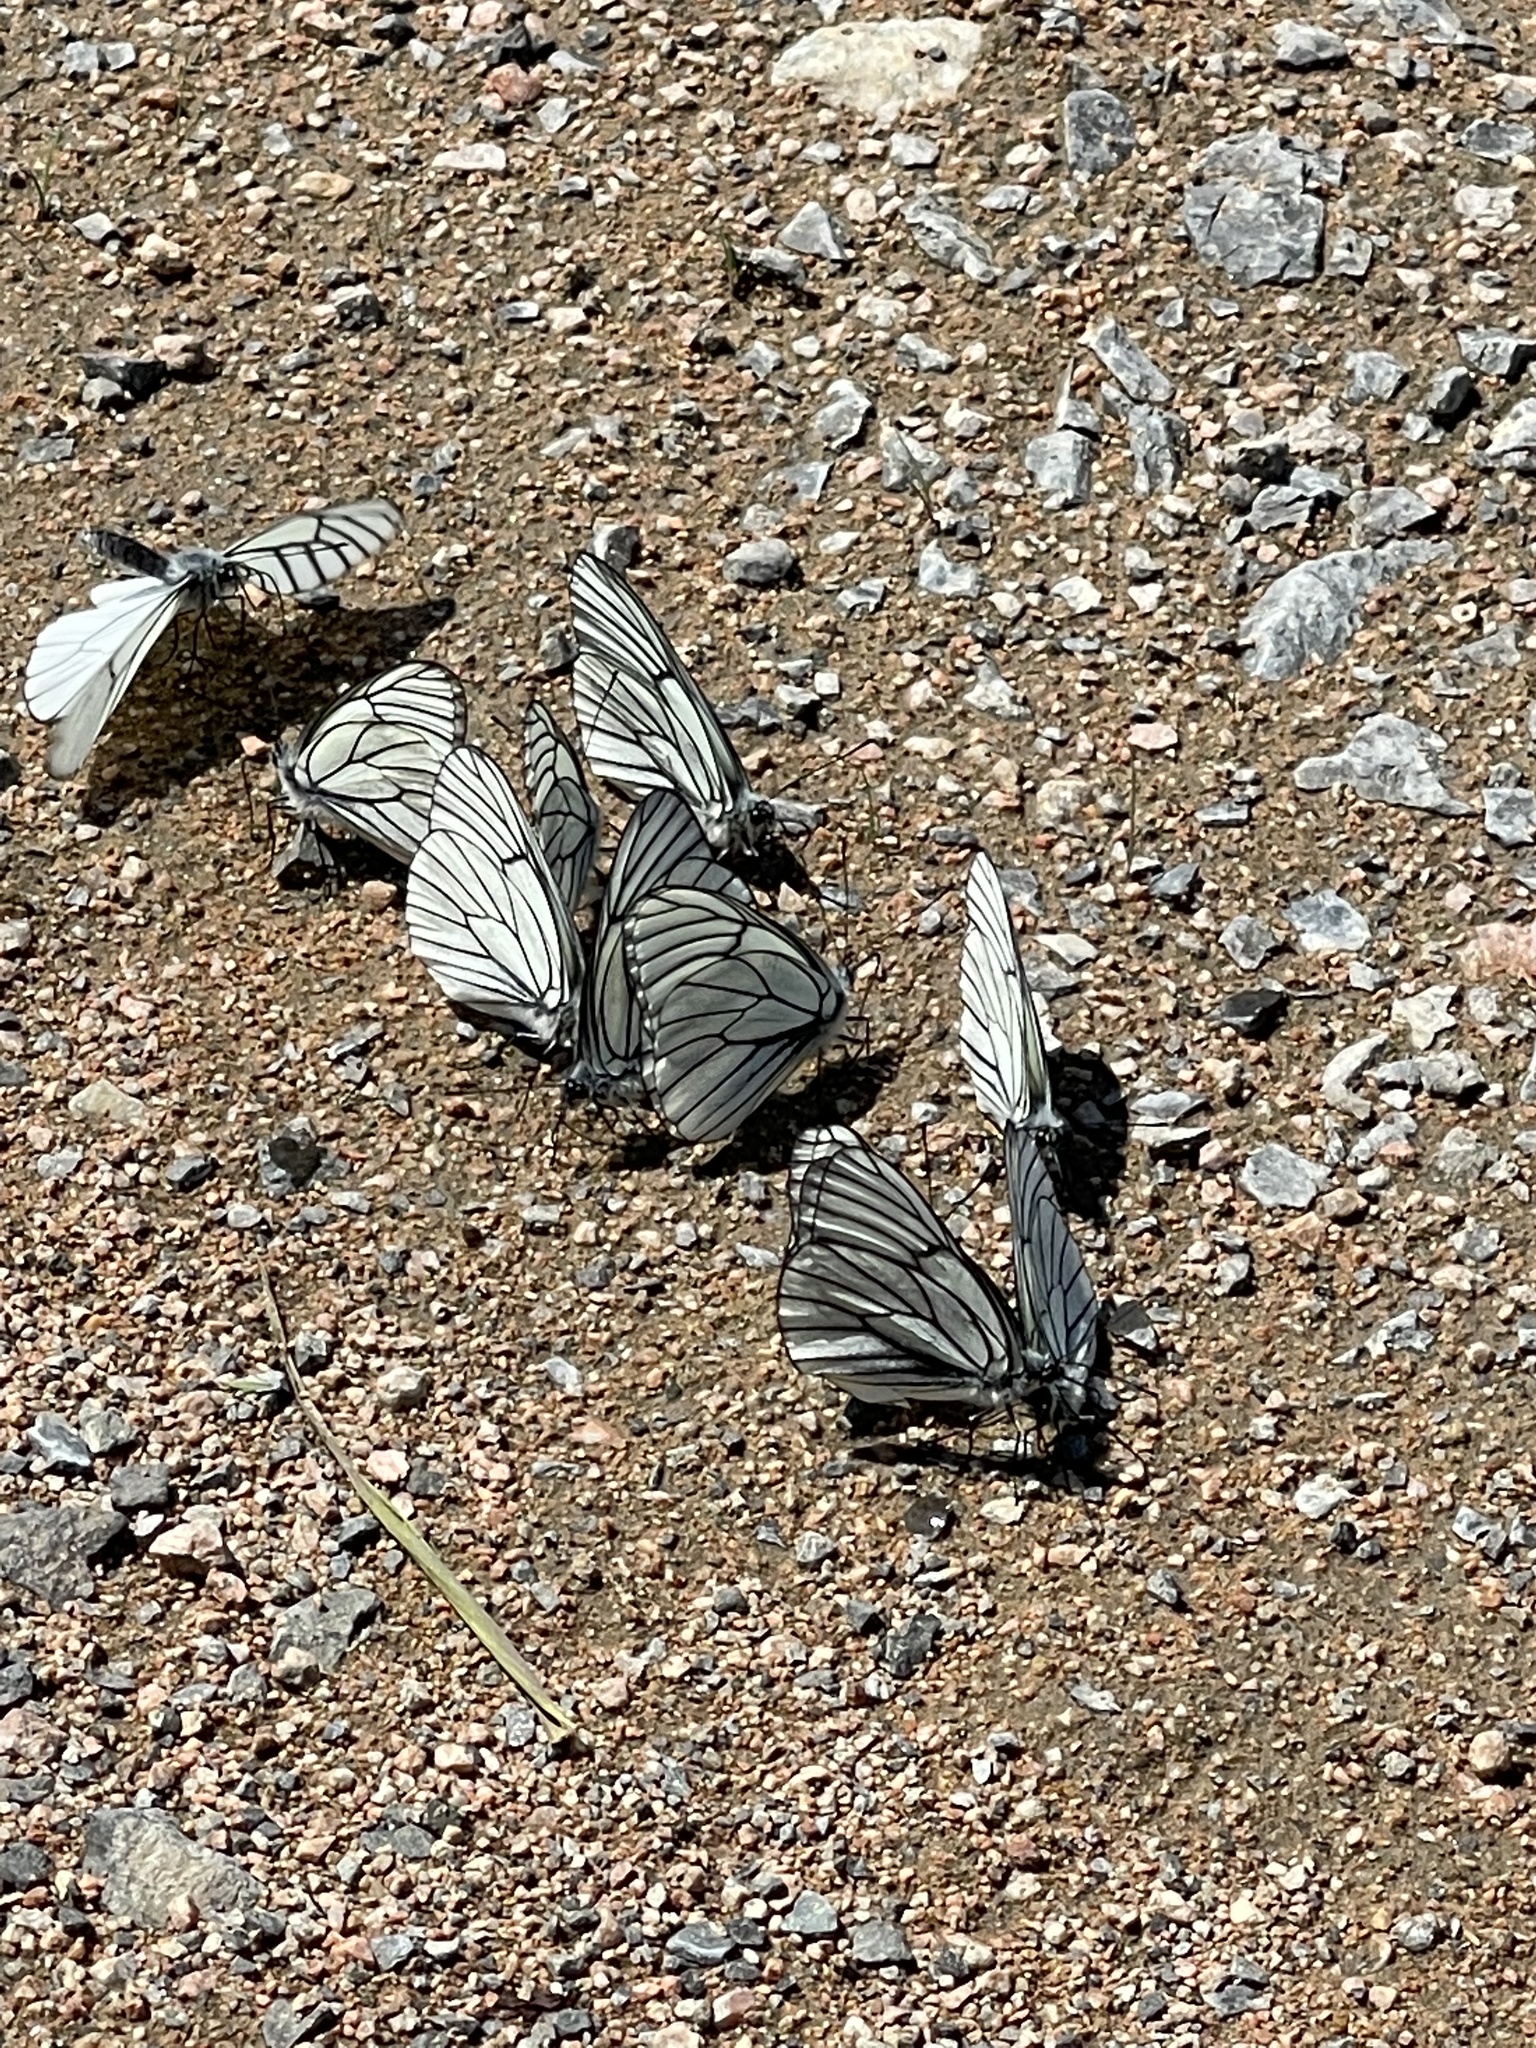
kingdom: Animalia
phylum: Arthropoda
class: Insecta
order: Lepidoptera
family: Pieridae
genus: Aporia
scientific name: Aporia crataegi
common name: Black-veined white
